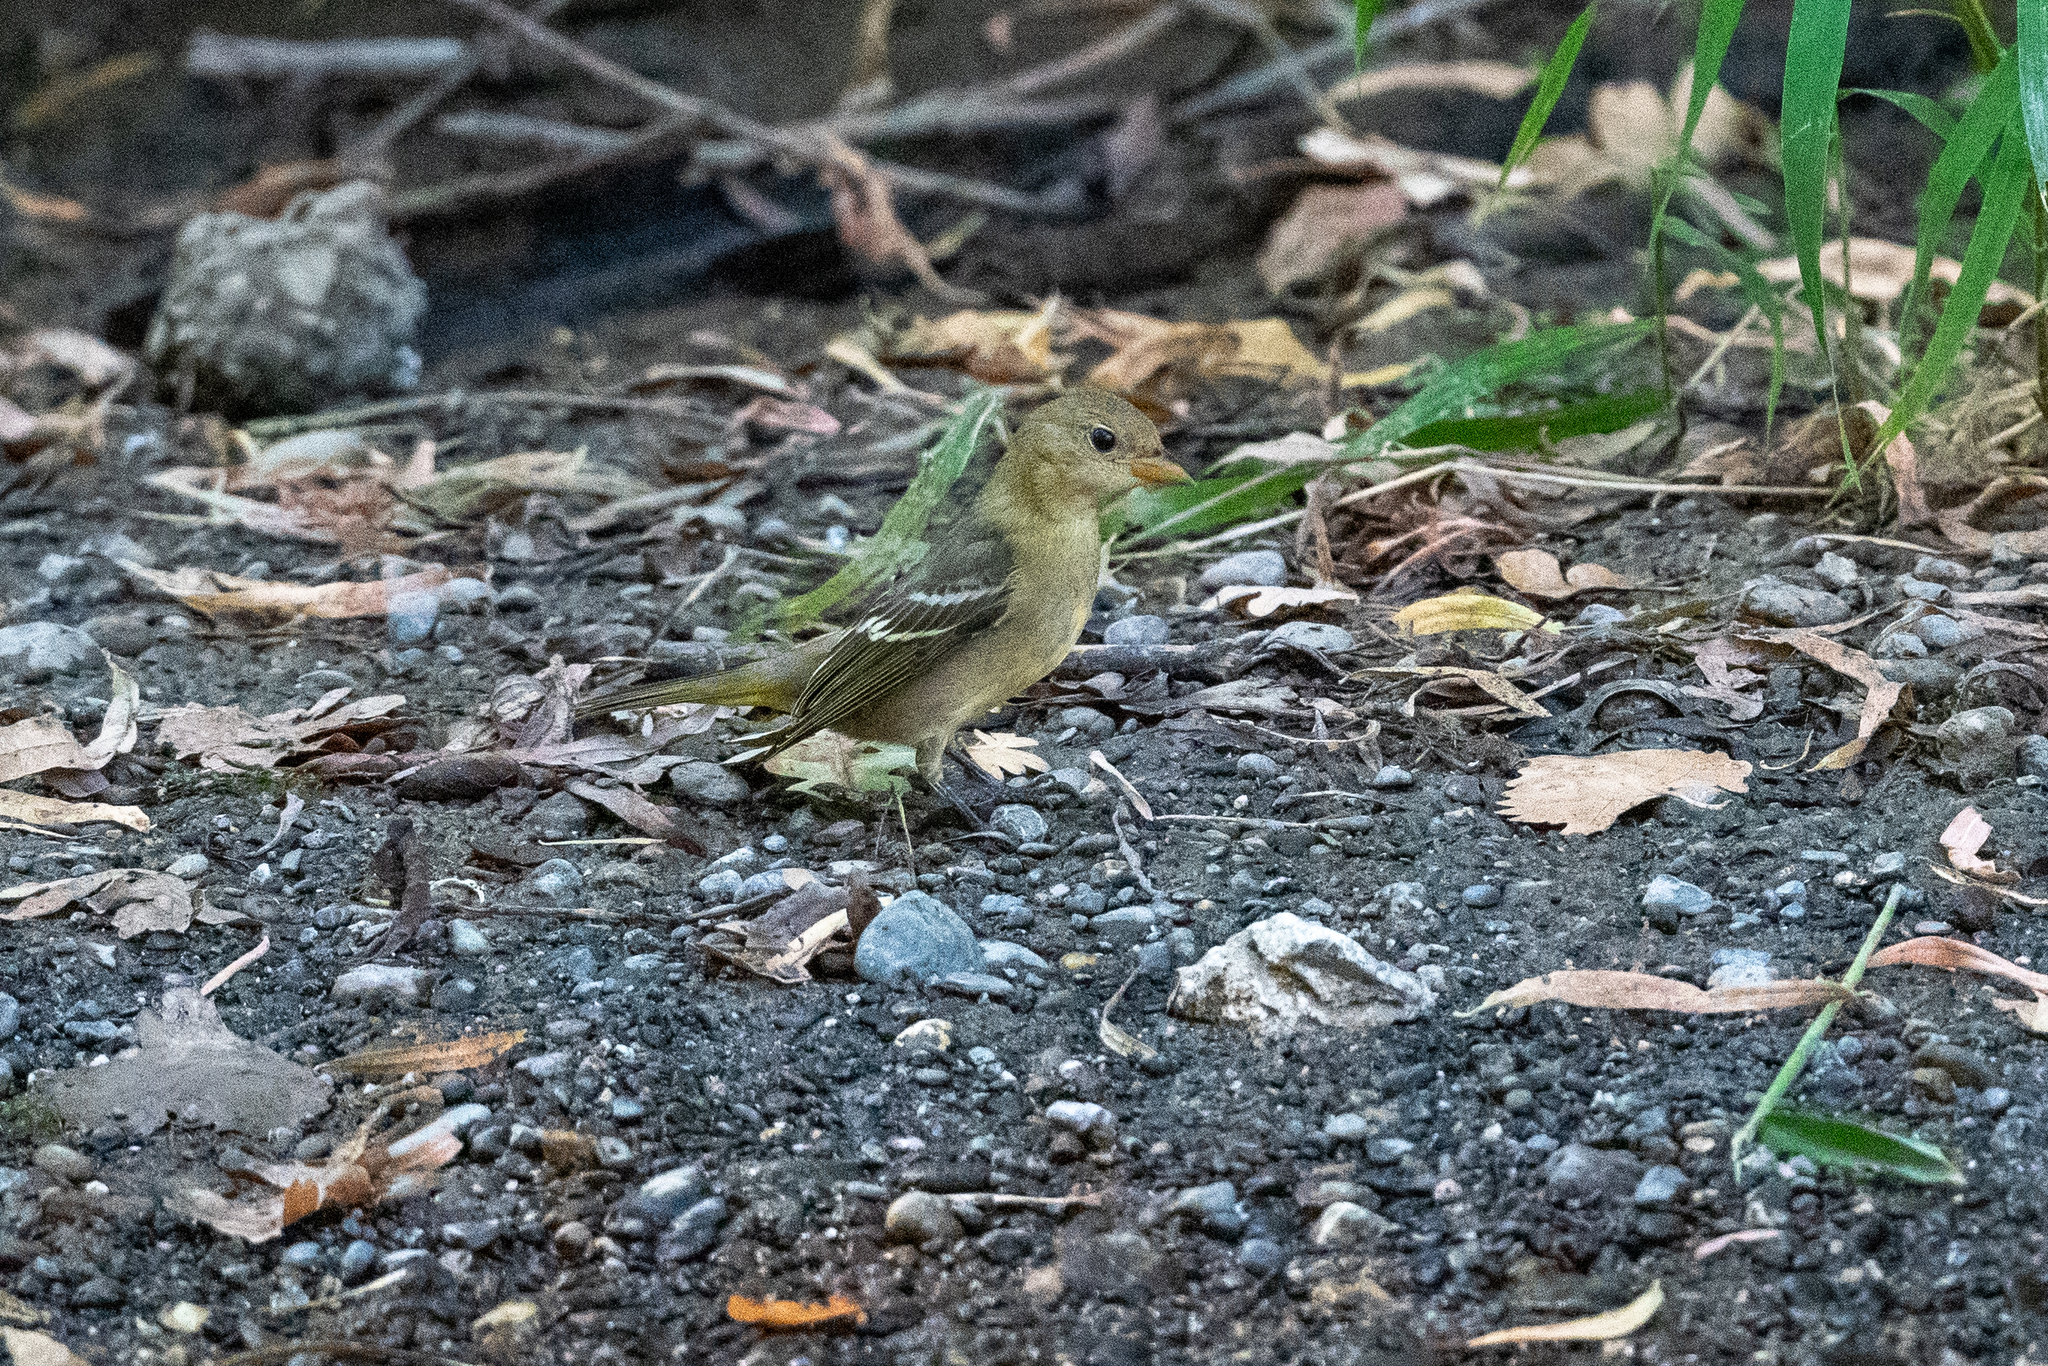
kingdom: Animalia
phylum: Chordata
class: Aves
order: Passeriformes
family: Cardinalidae
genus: Piranga
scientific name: Piranga ludoviciana
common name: Western tanager
